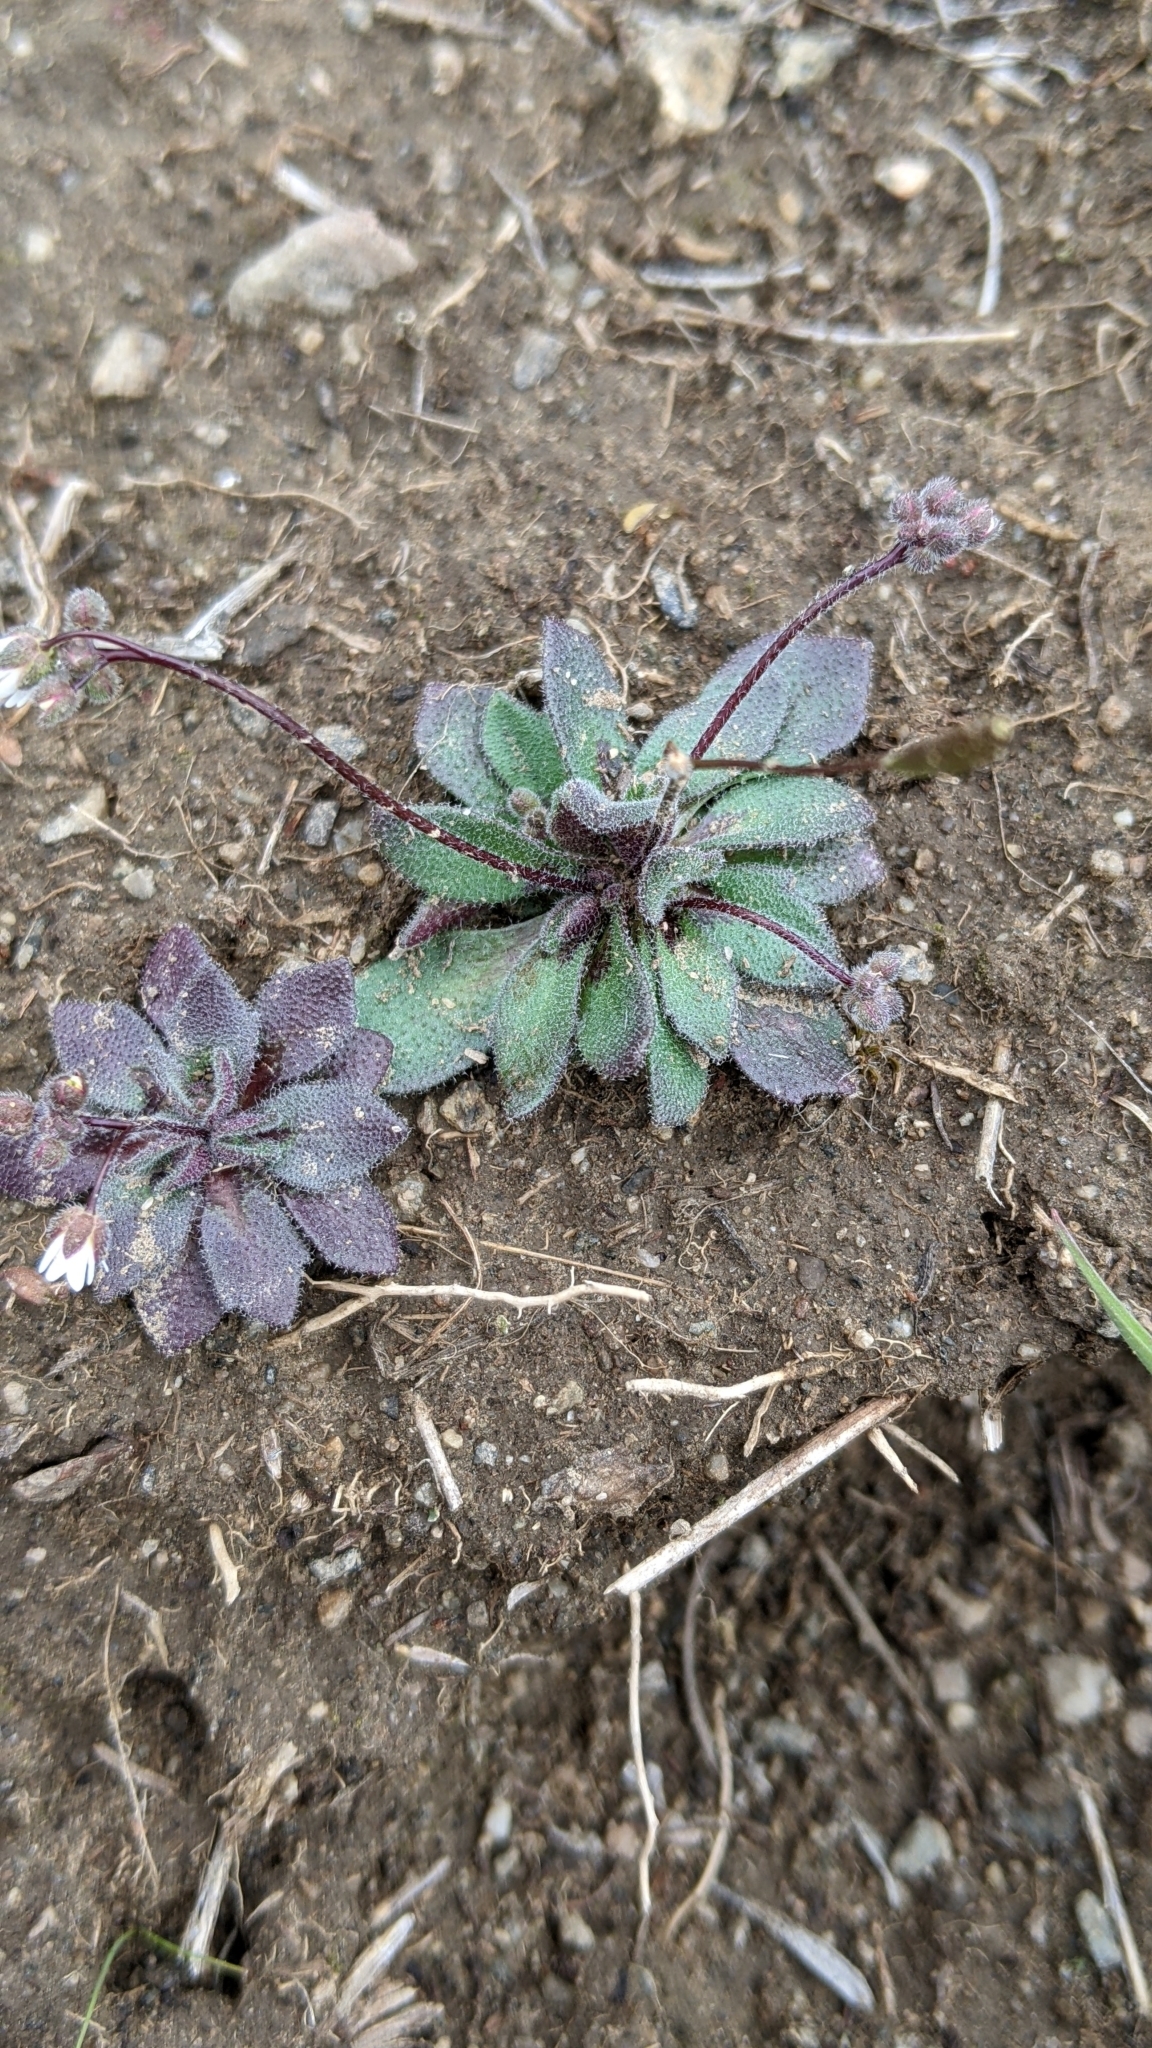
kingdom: Plantae
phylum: Tracheophyta
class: Magnoliopsida
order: Brassicales
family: Brassicaceae
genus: Draba
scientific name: Draba verna
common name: Spring draba
